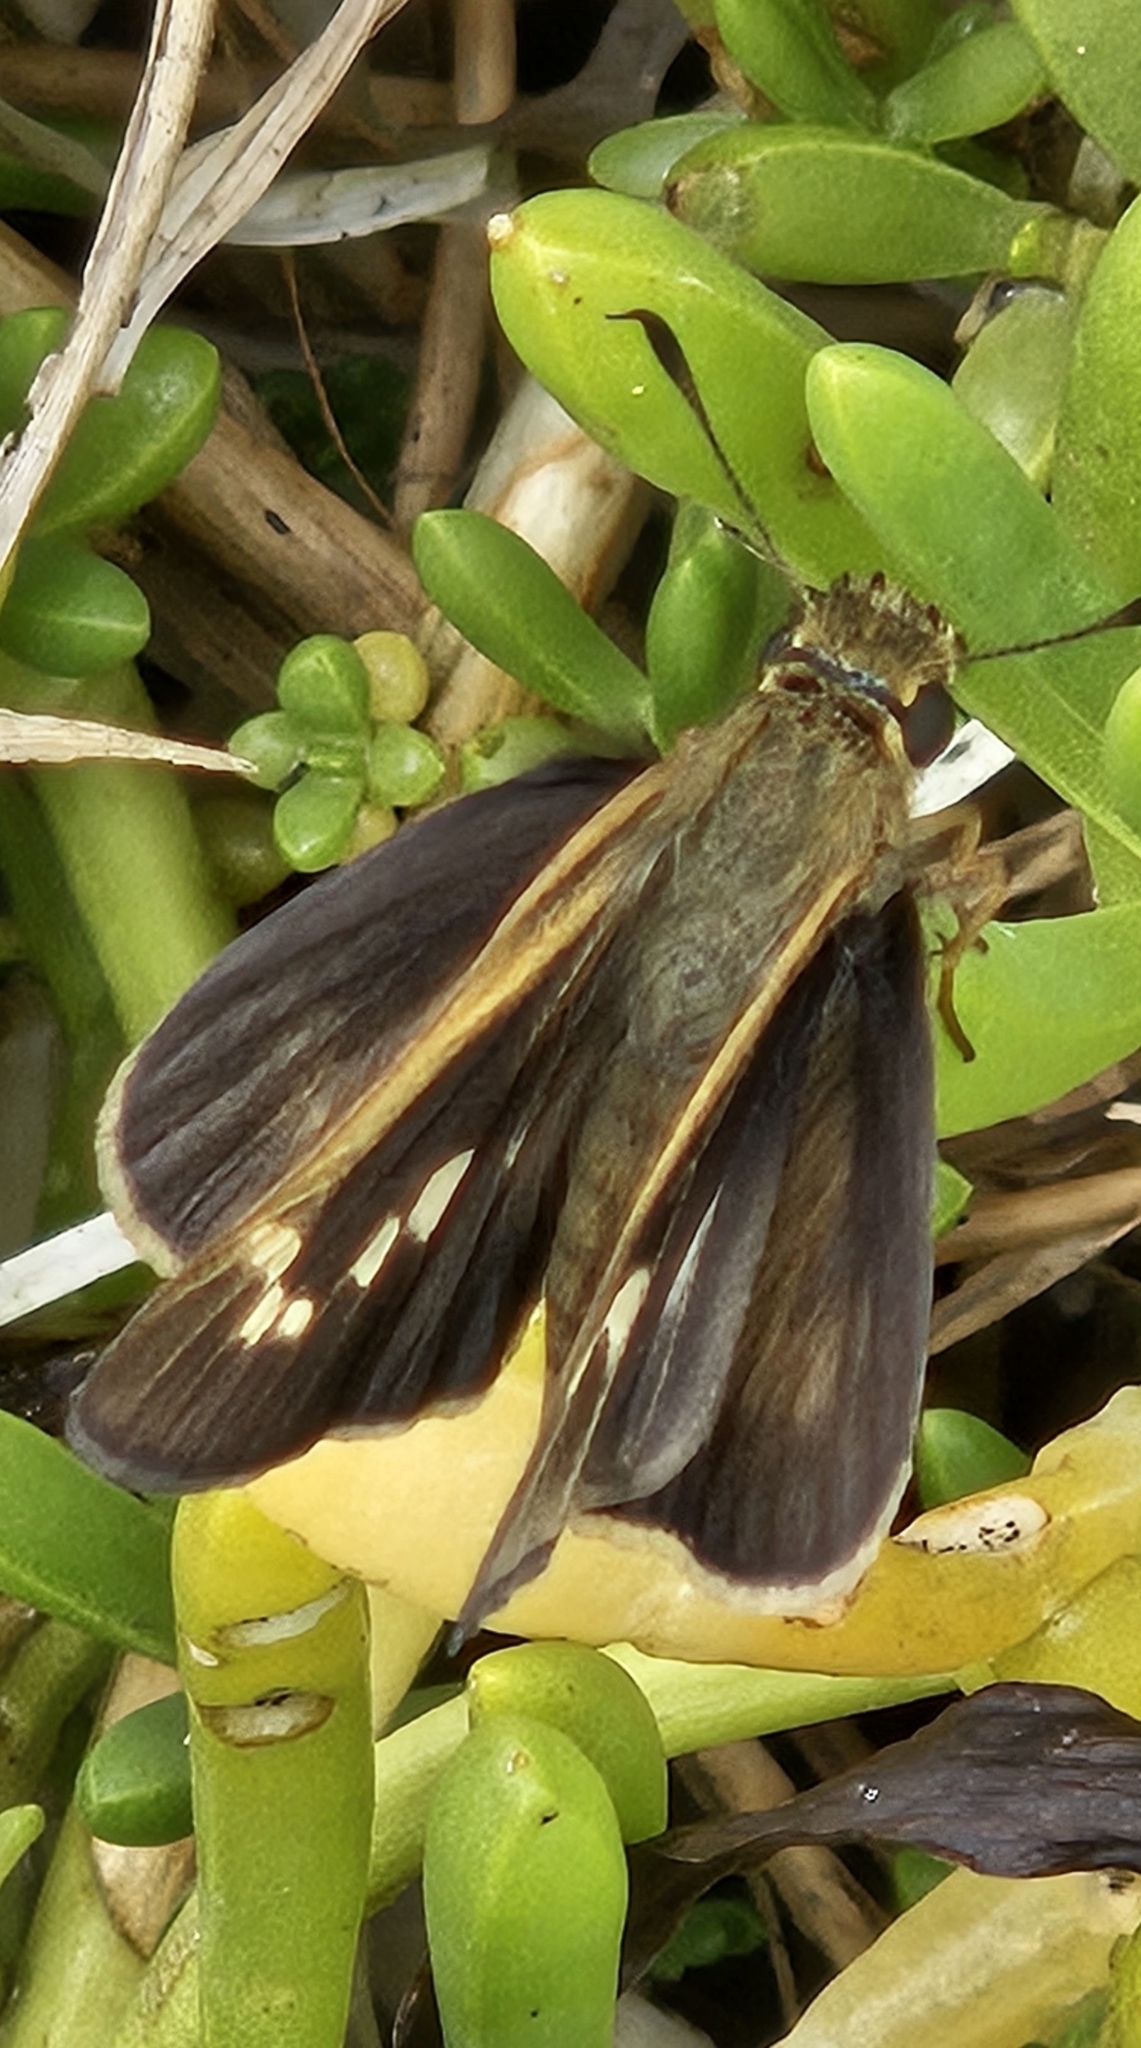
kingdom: Animalia
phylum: Arthropoda
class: Insecta
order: Lepidoptera
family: Hesperiidae
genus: Panoquina
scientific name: Panoquina errans
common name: Wandering skipper
